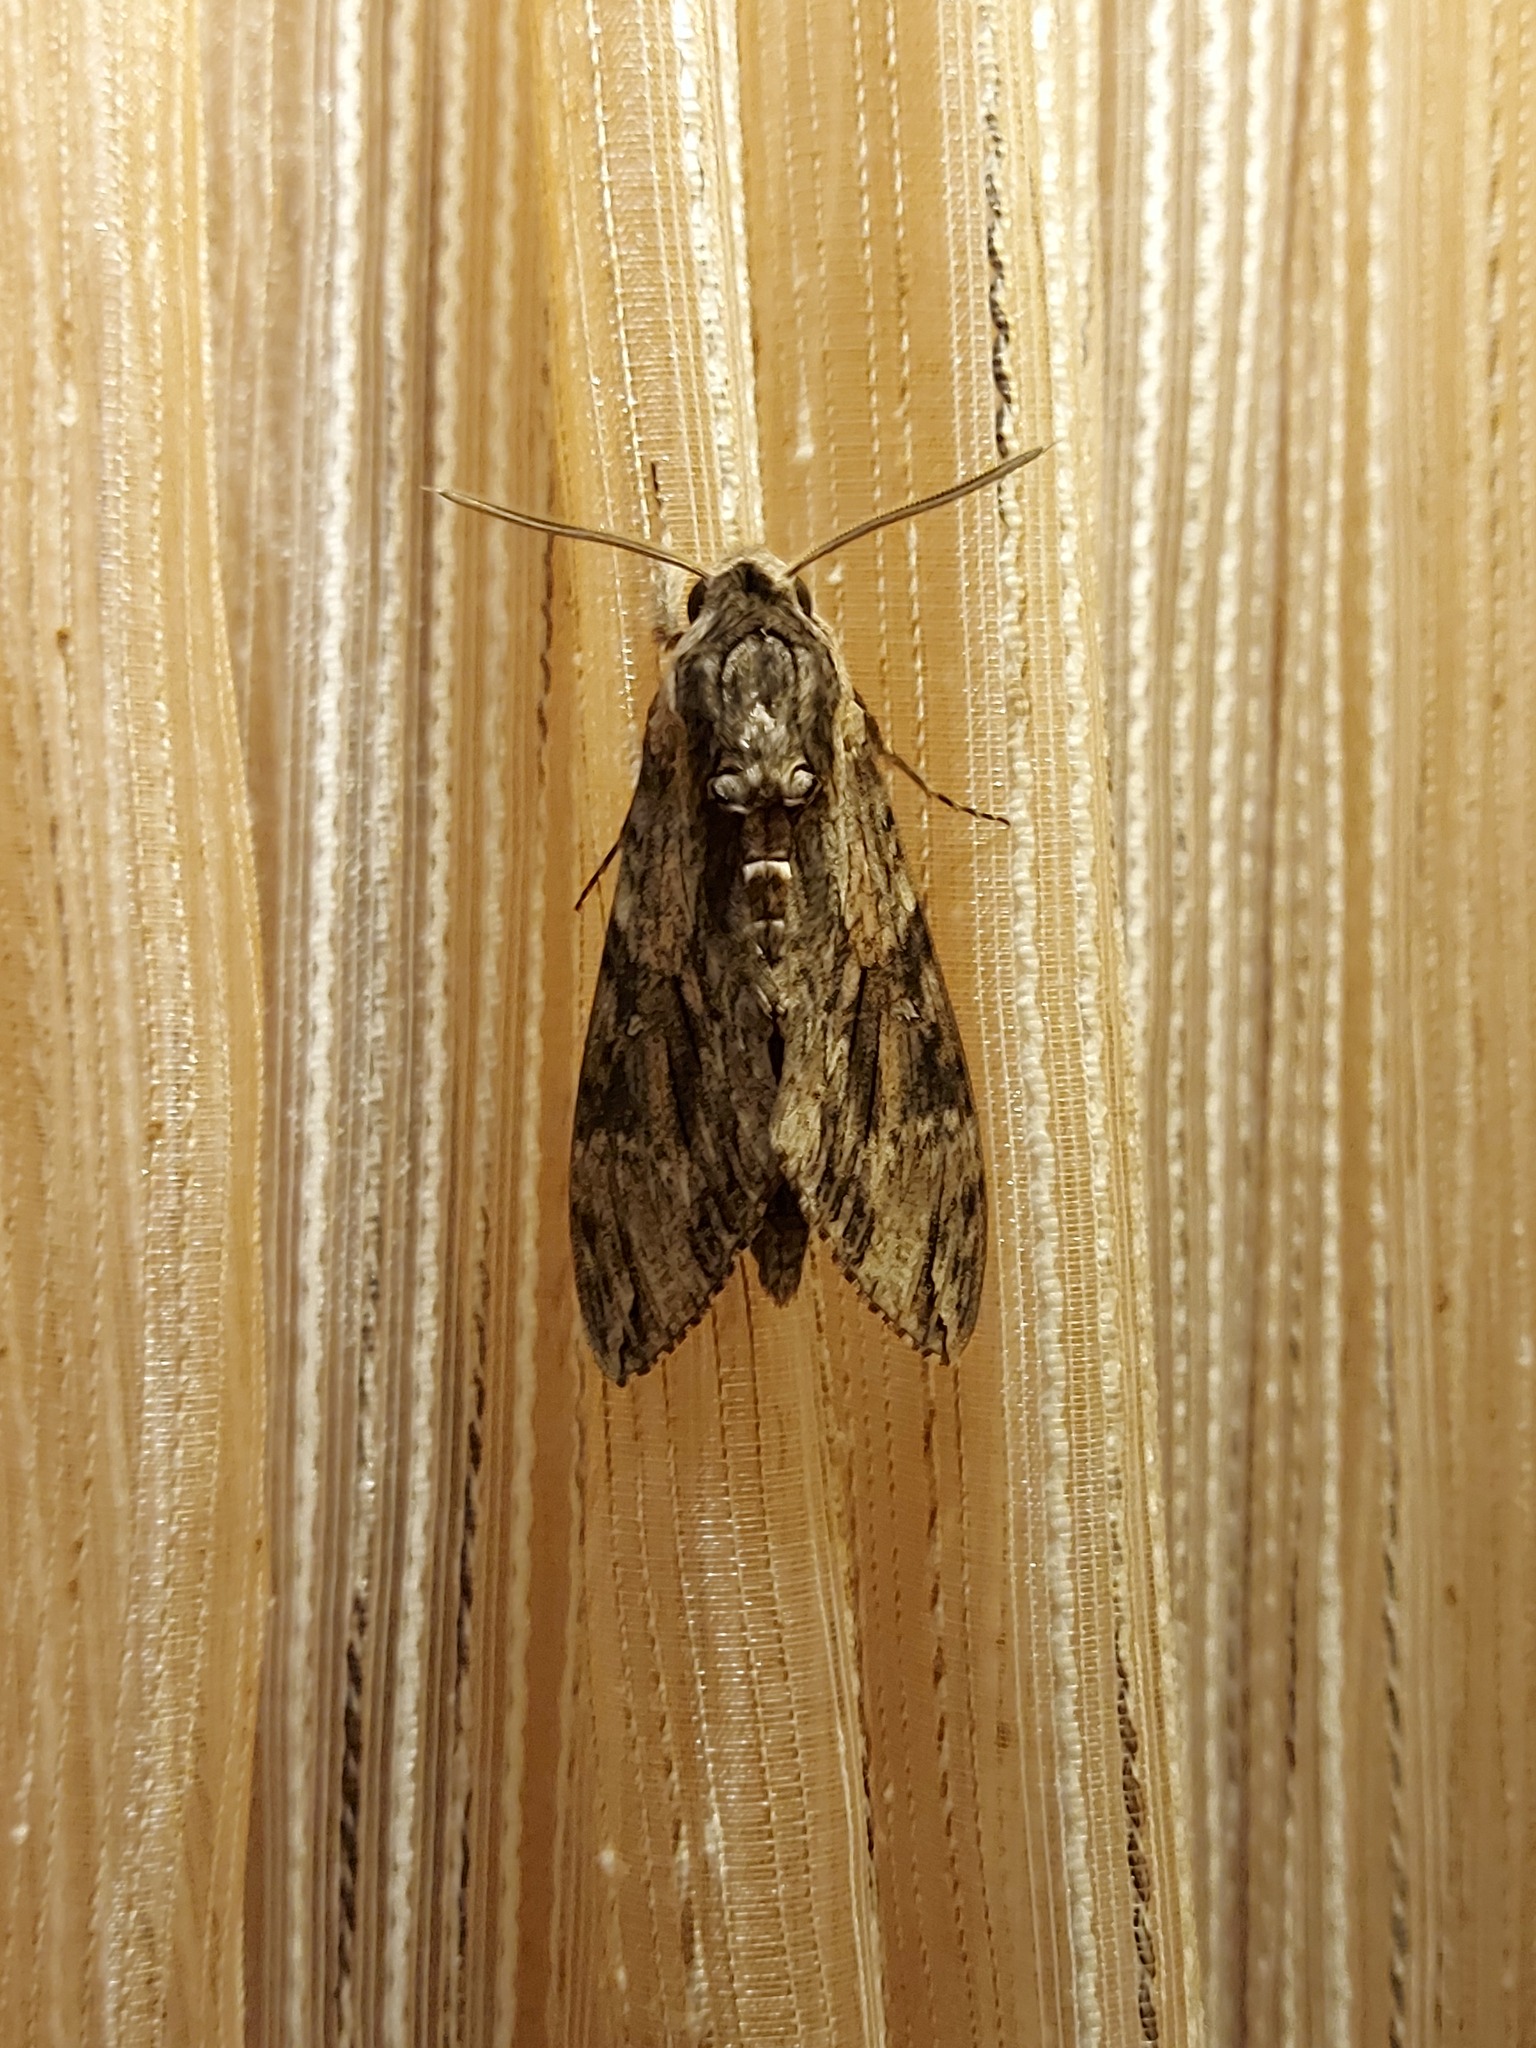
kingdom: Animalia
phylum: Arthropoda
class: Insecta
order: Lepidoptera
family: Sphingidae
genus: Agrius
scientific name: Agrius convolvuli
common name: Convolvulus hawkmoth
